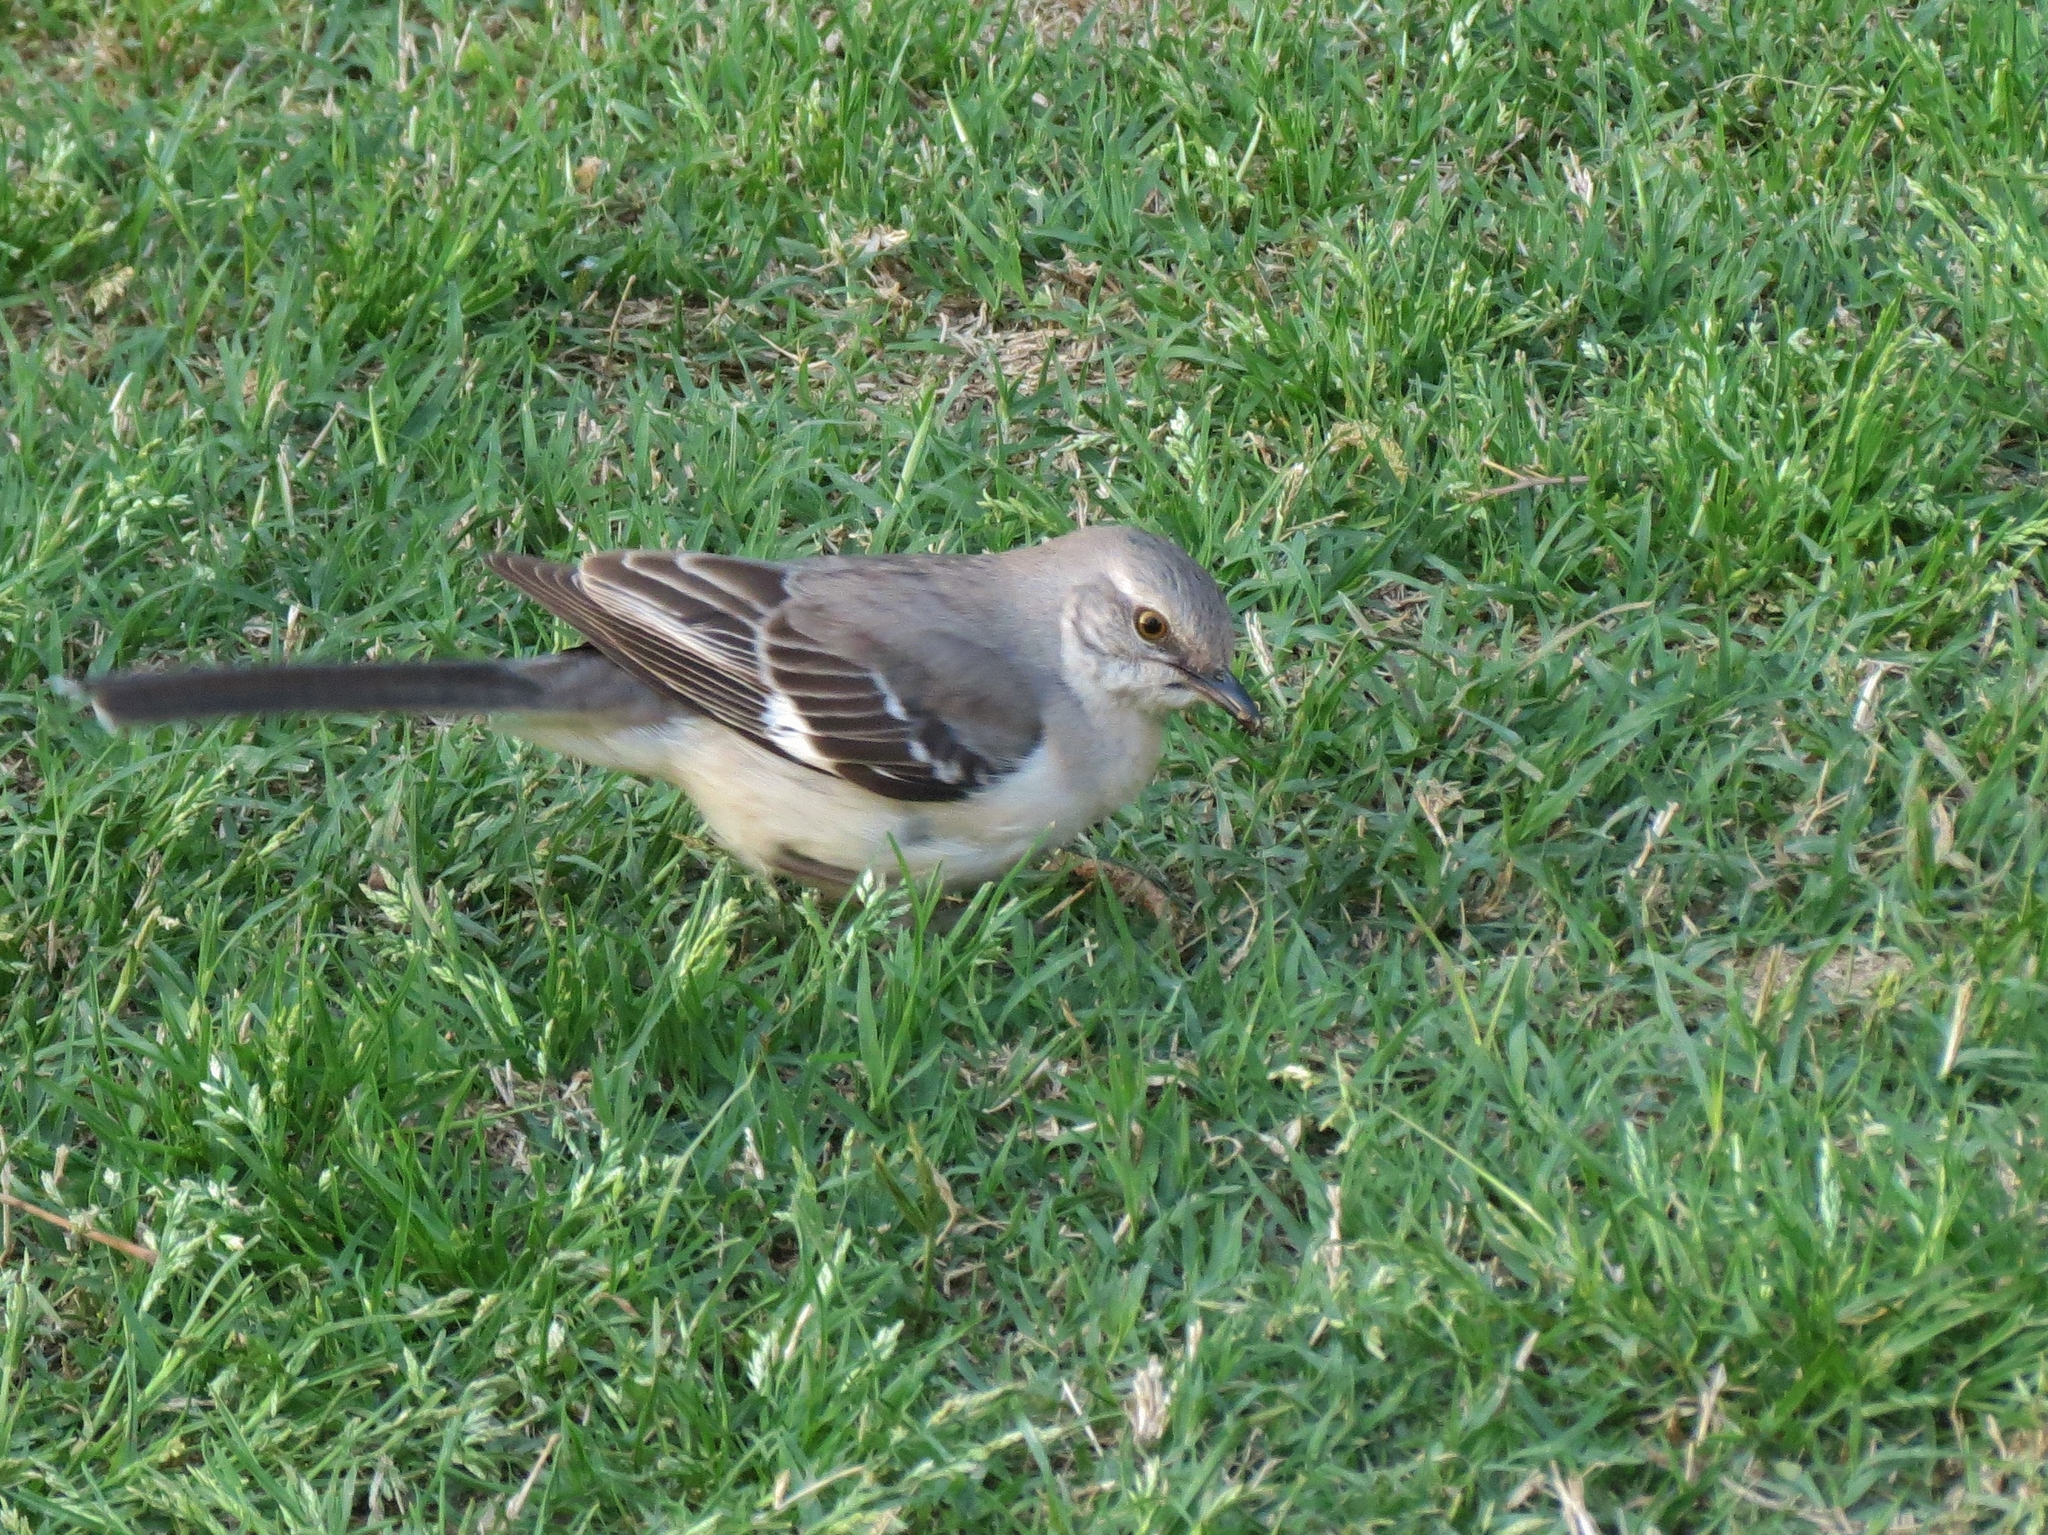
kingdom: Animalia
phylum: Chordata
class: Aves
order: Passeriformes
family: Mimidae
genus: Mimus
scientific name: Mimus polyglottos
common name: Northern mockingbird
